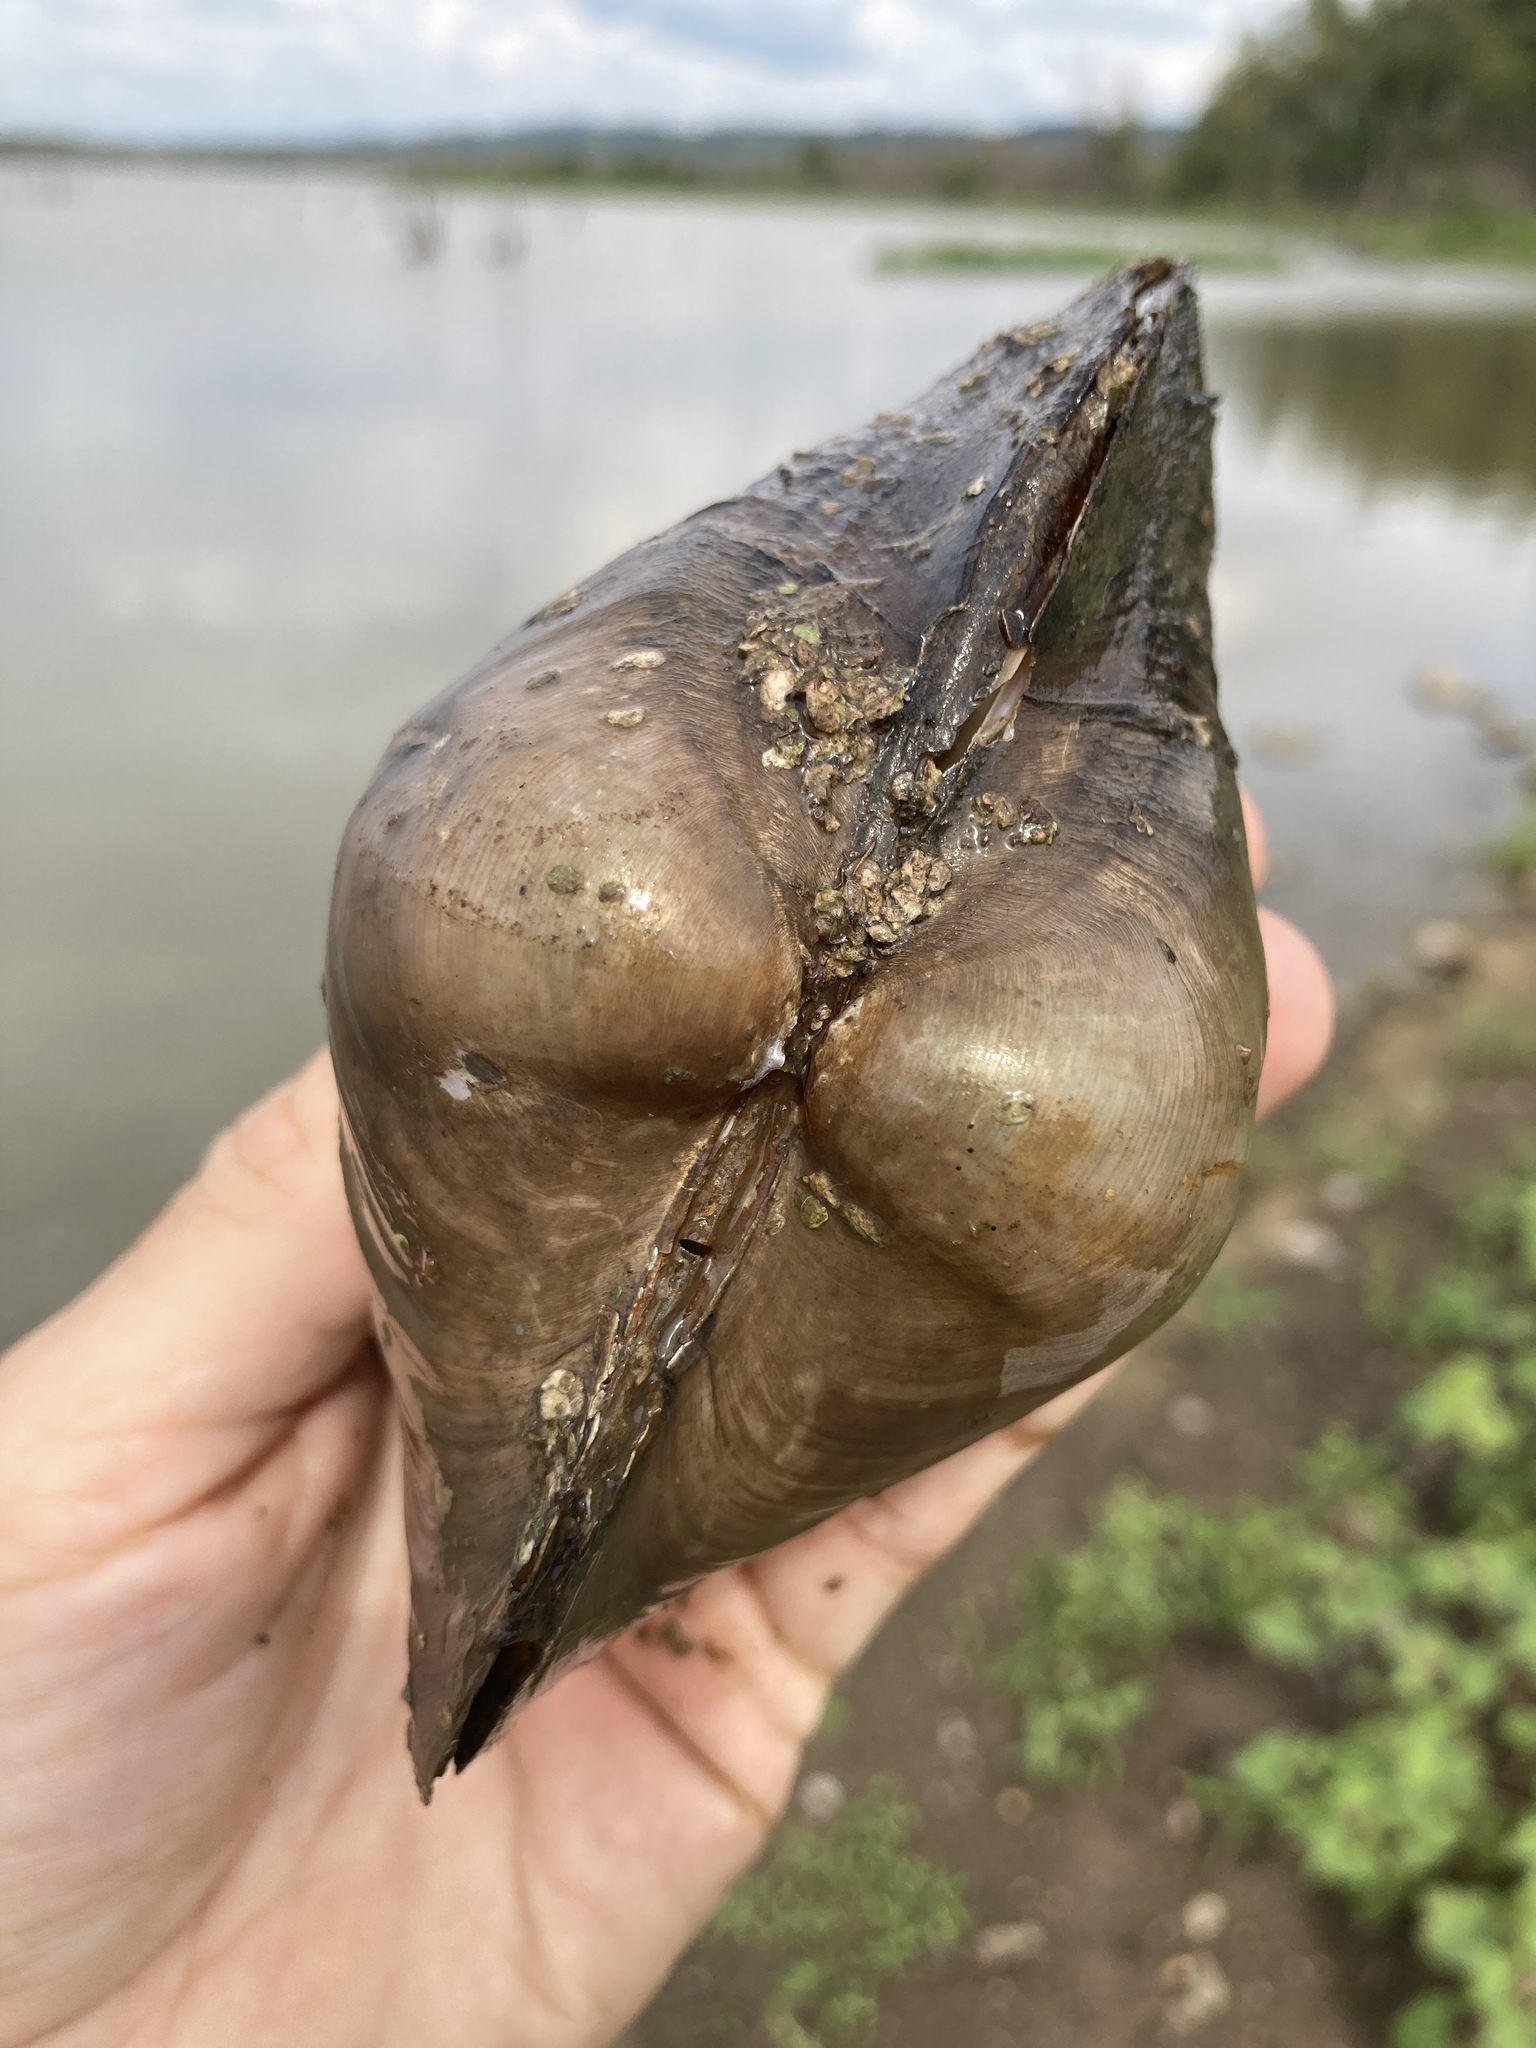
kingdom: Animalia
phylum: Mollusca
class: Bivalvia
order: Unionida
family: Unionidae
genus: Pyganodon
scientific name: Pyganodon grandis
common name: Giant floater
